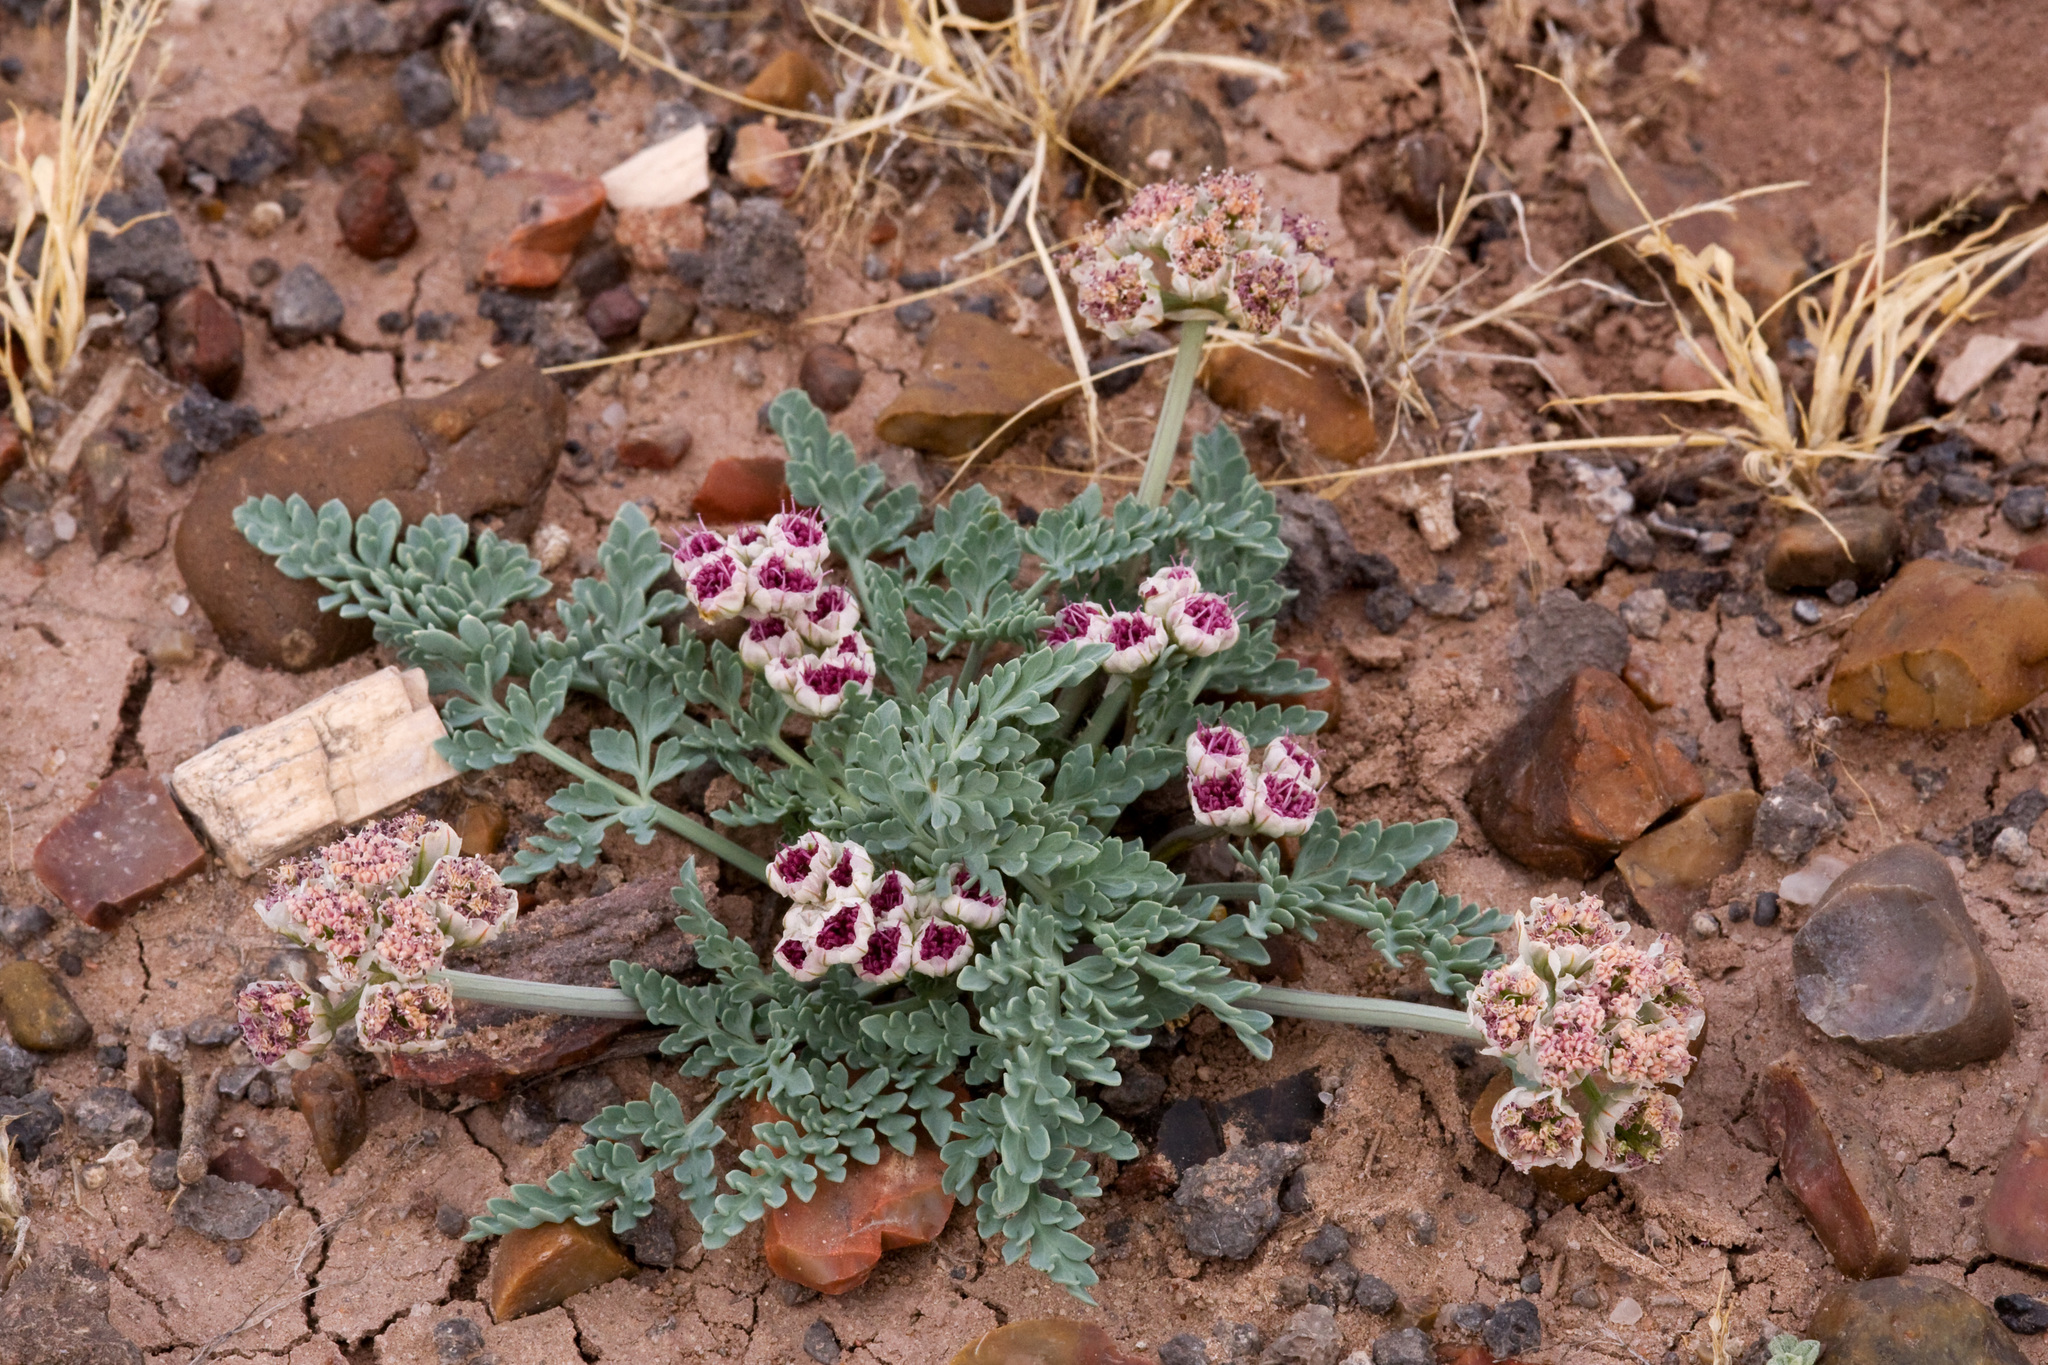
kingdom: Plantae
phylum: Tracheophyta
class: Magnoliopsida
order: Apiales
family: Apiaceae
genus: Vesper
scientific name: Vesper bulbosus
